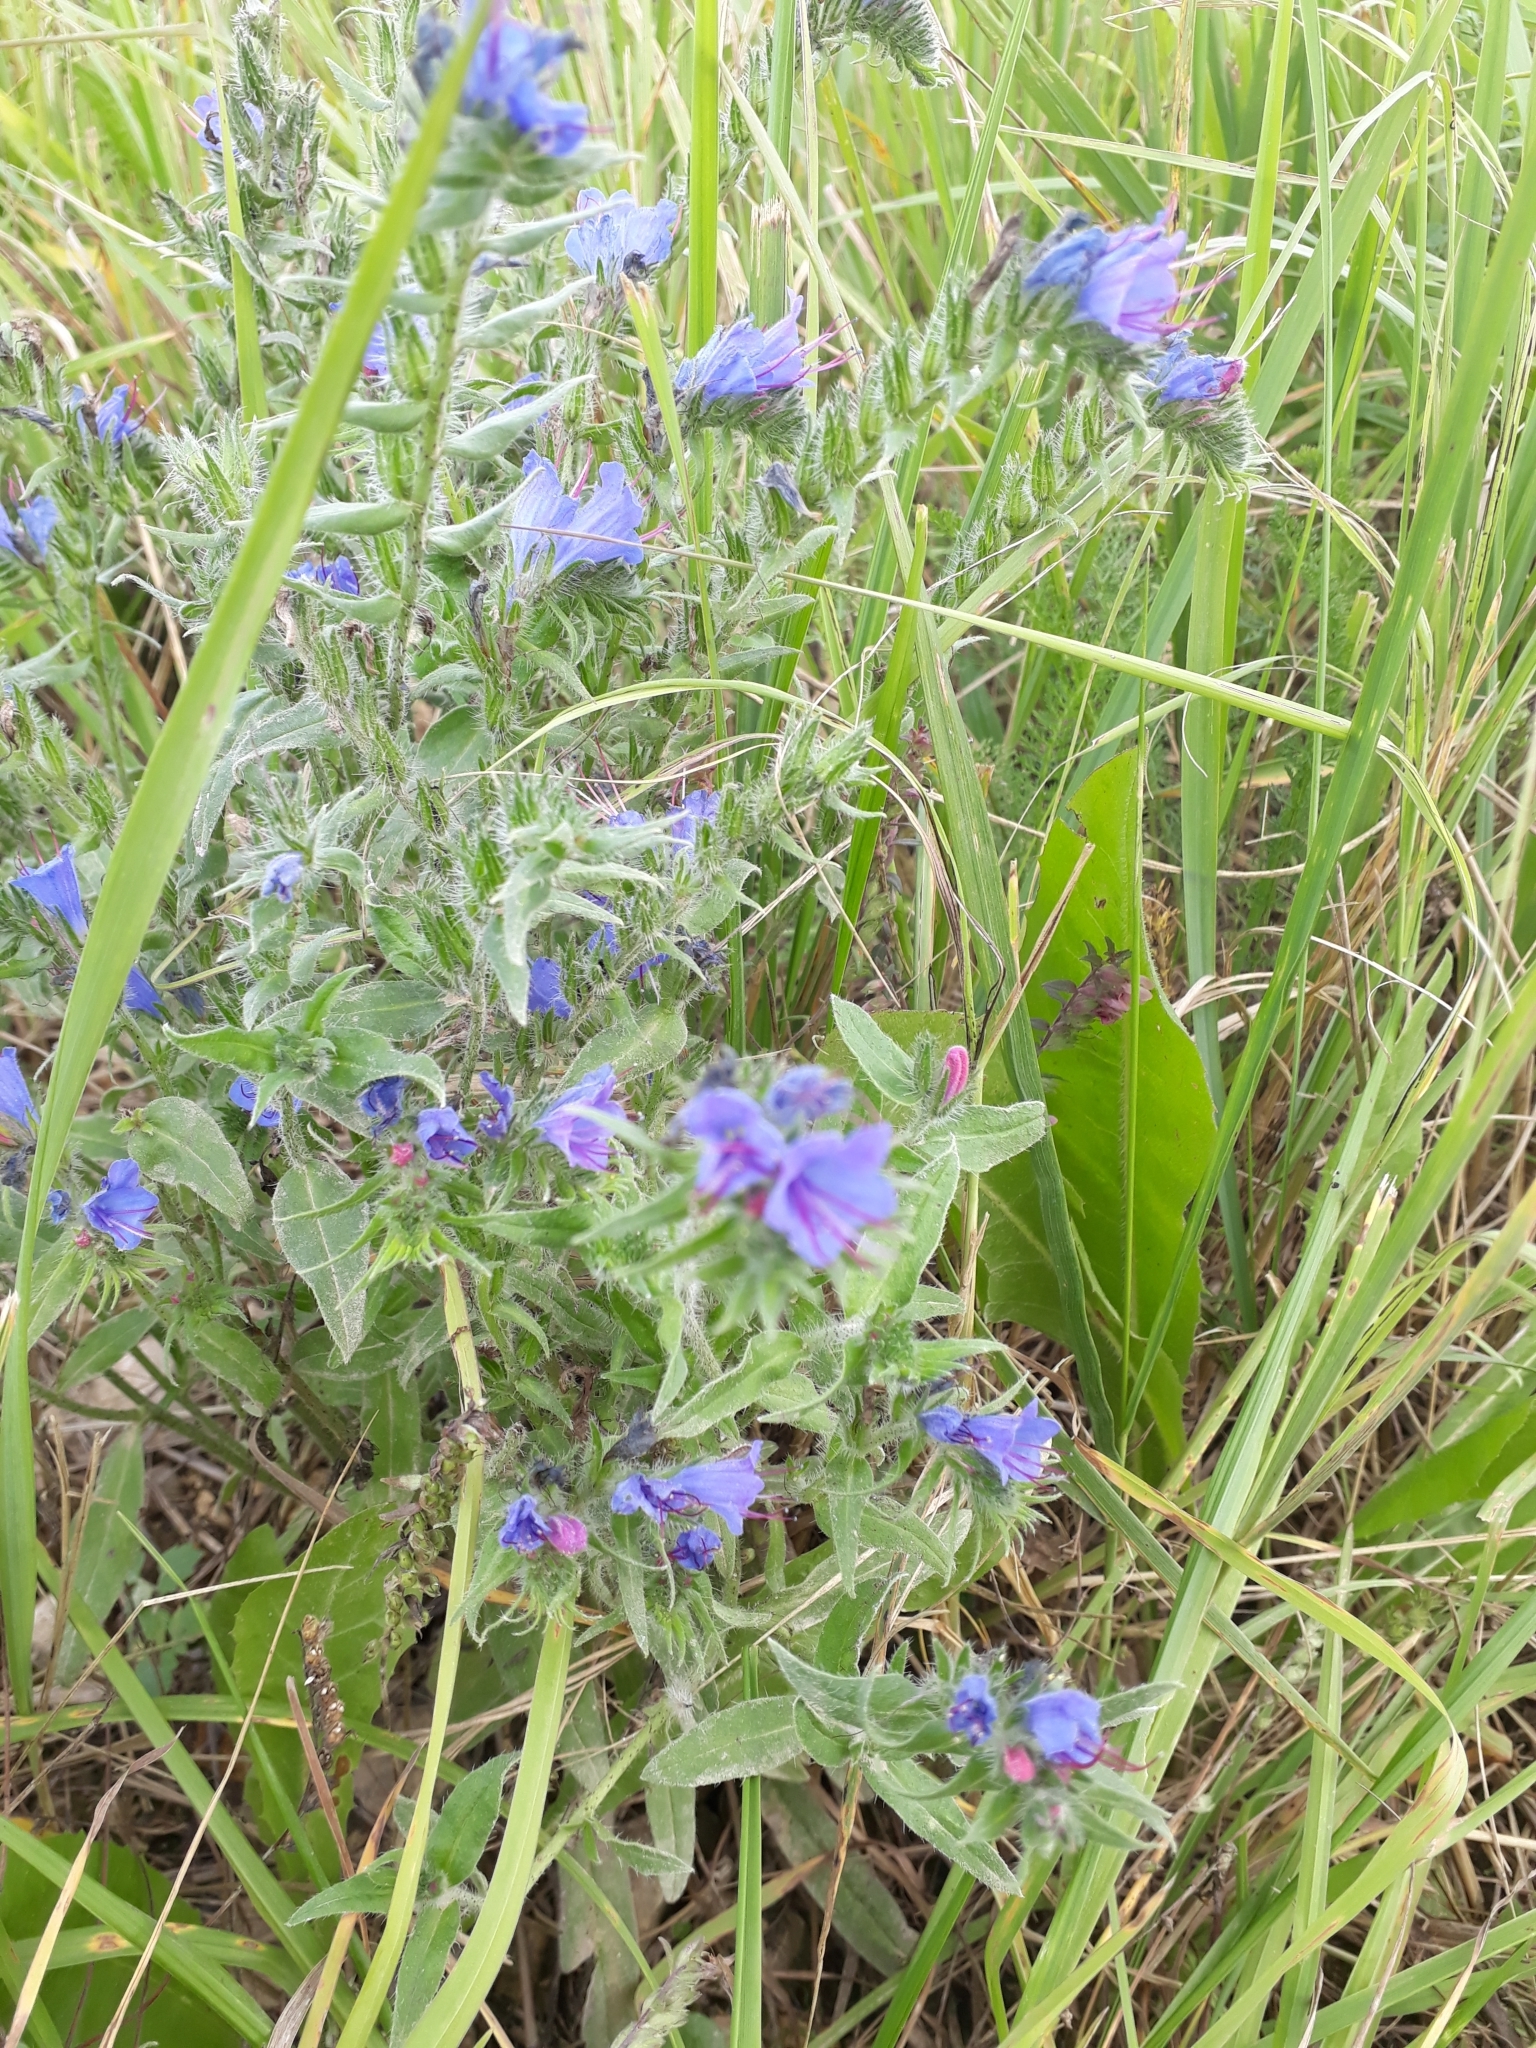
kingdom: Plantae
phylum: Tracheophyta
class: Magnoliopsida
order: Boraginales
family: Boraginaceae
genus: Echium
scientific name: Echium vulgare
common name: Common viper's bugloss
